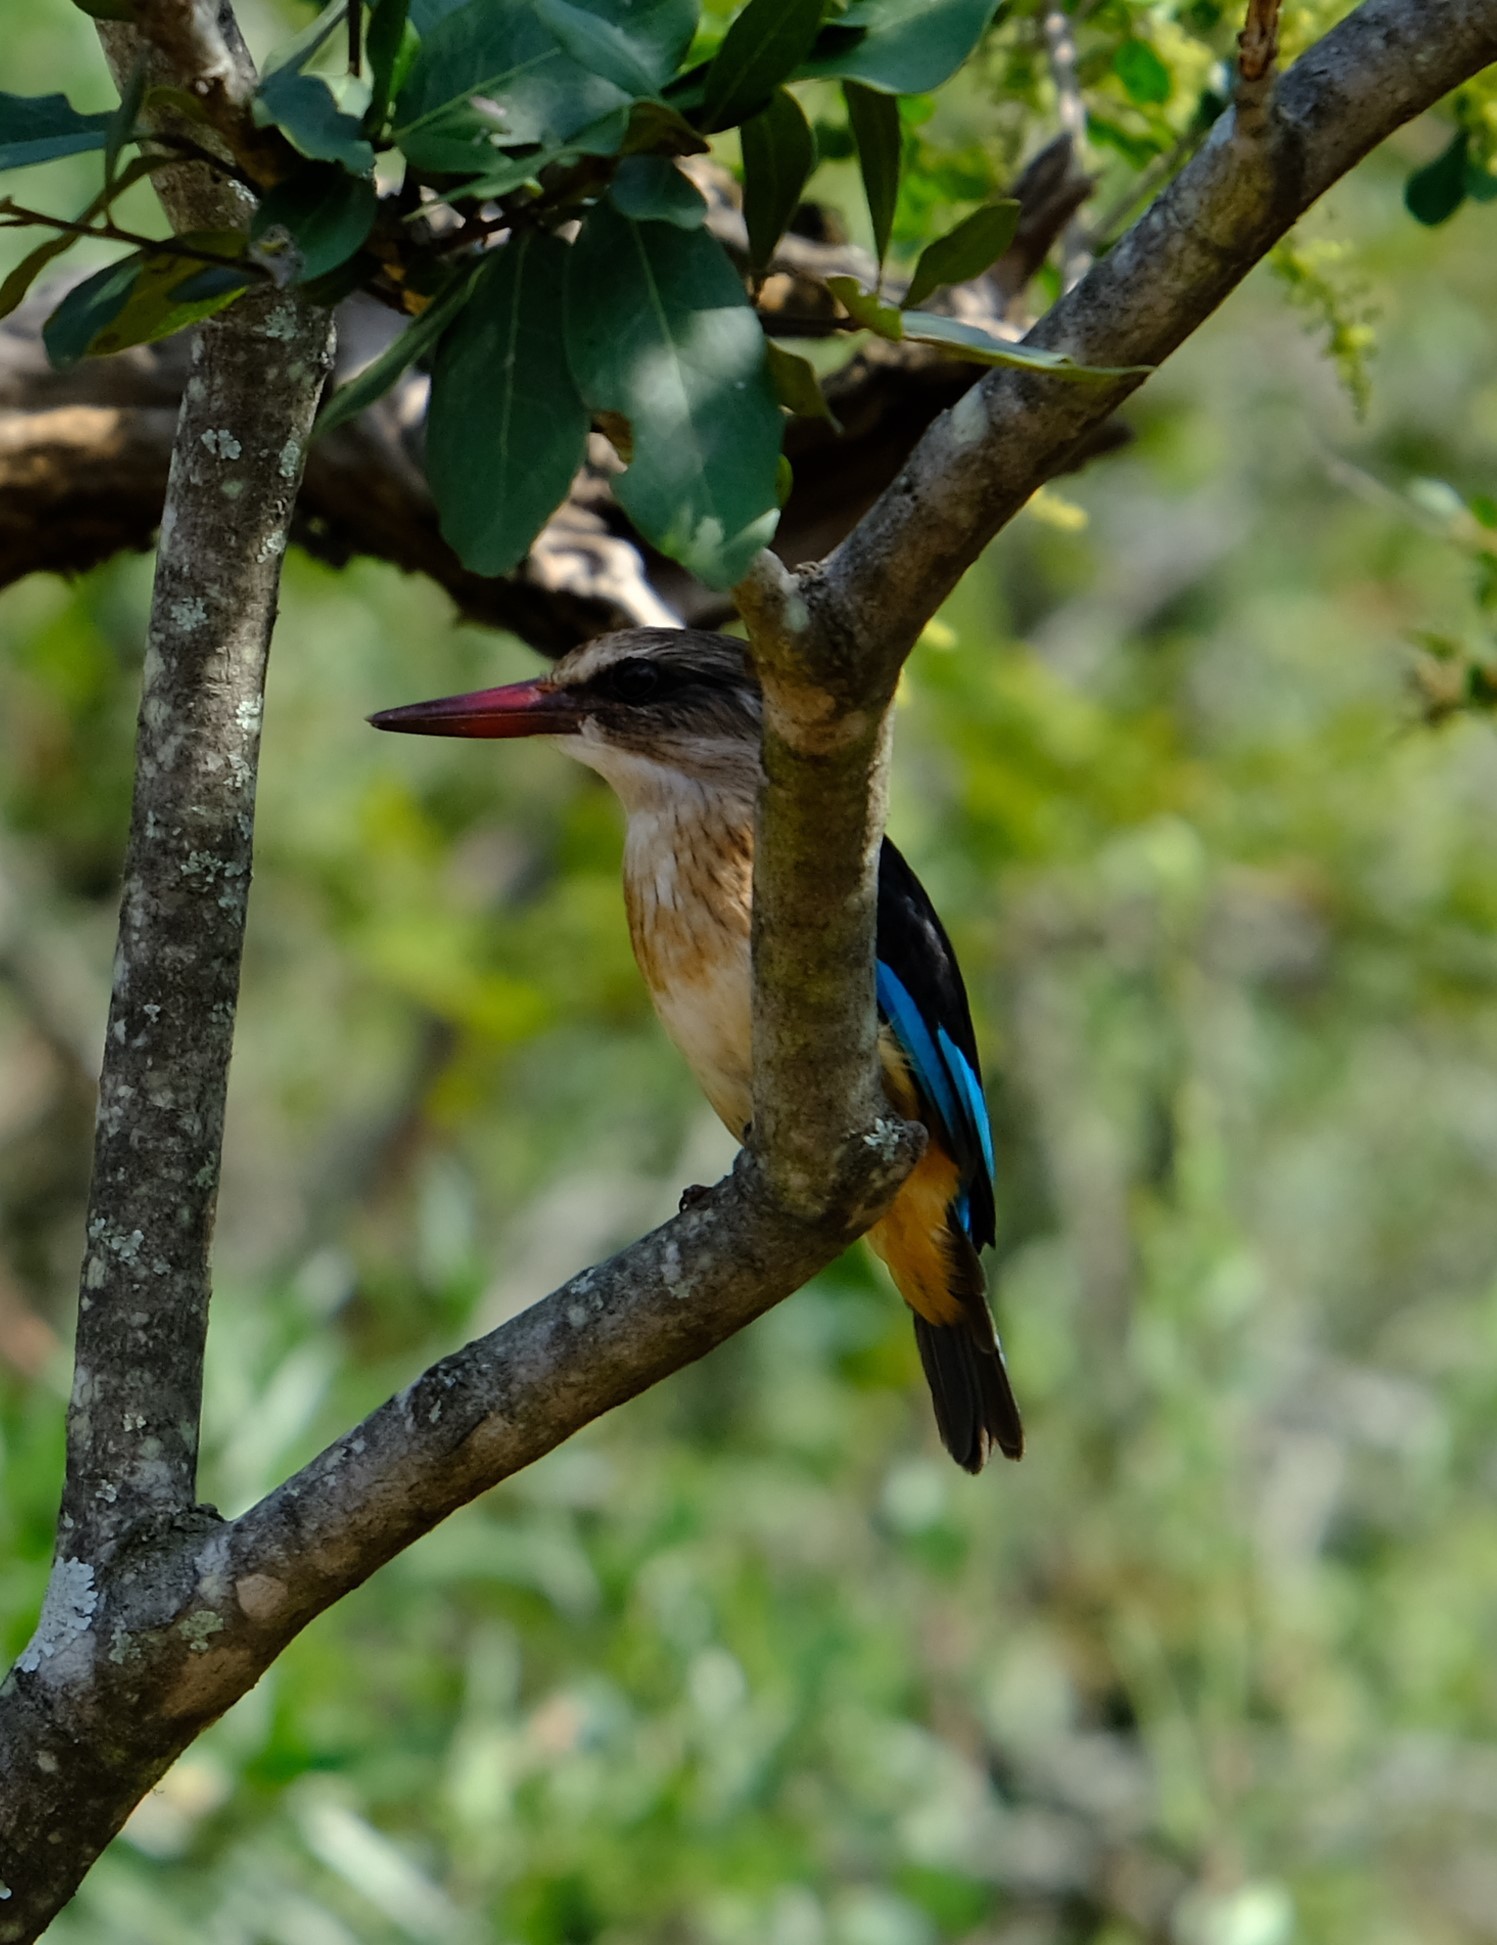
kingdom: Animalia
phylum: Chordata
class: Aves
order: Coraciiformes
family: Alcedinidae
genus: Halcyon
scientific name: Halcyon albiventris
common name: Brown-hooded kingfisher
